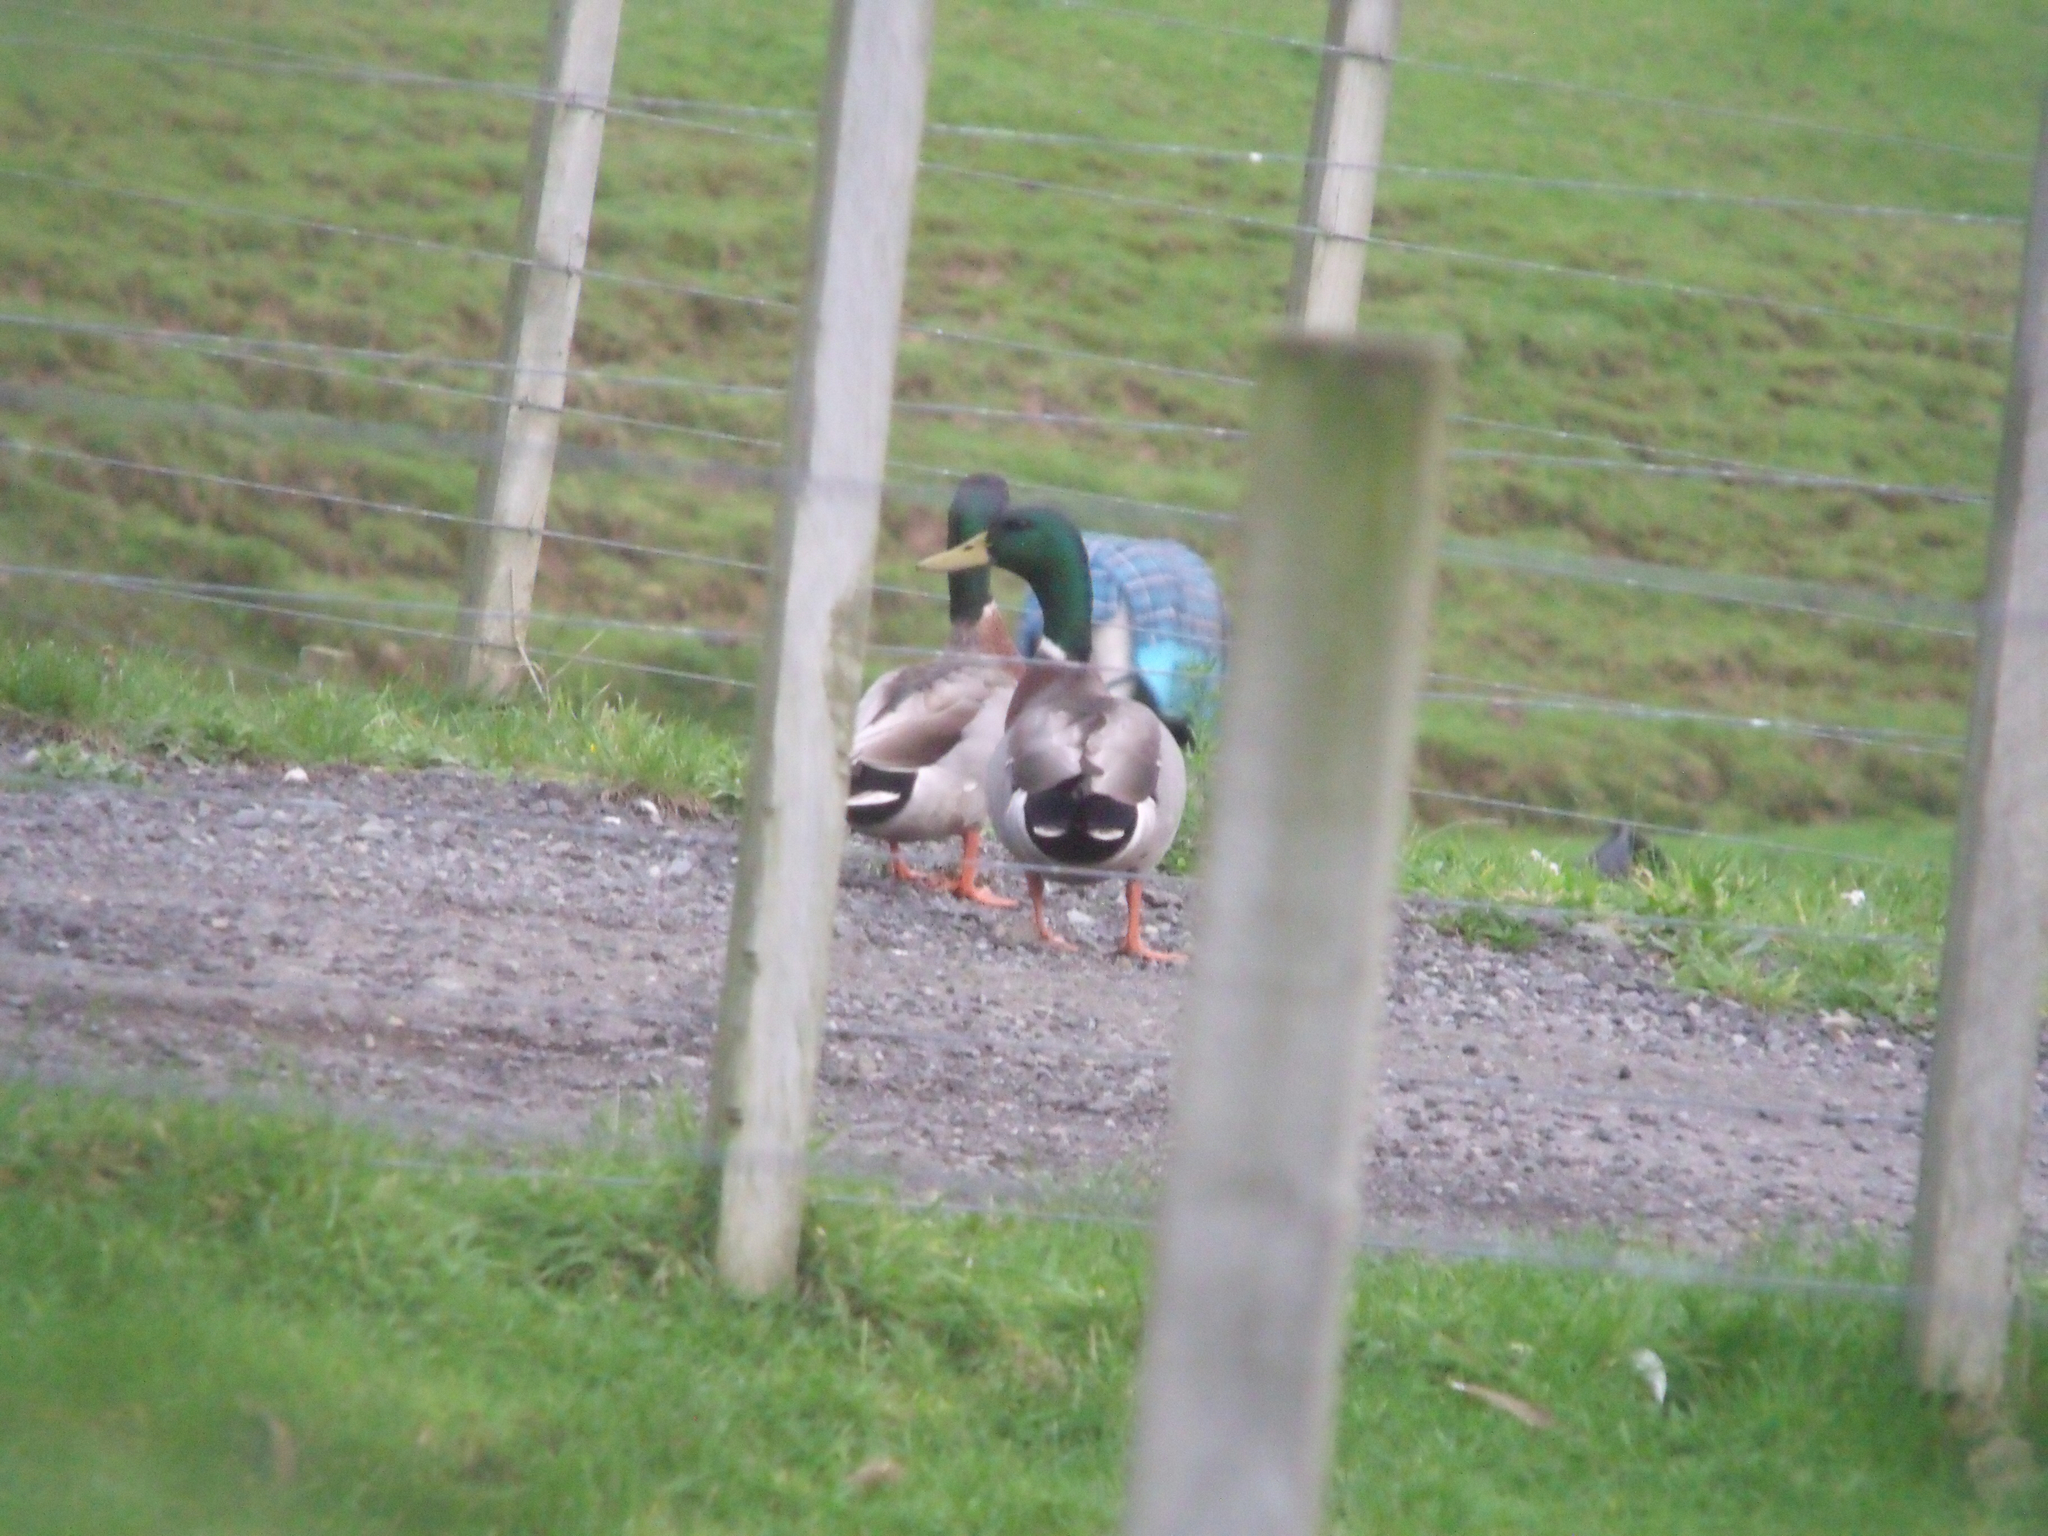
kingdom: Animalia
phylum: Chordata
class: Aves
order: Anseriformes
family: Anatidae
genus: Anas
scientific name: Anas platyrhynchos
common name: Mallard
